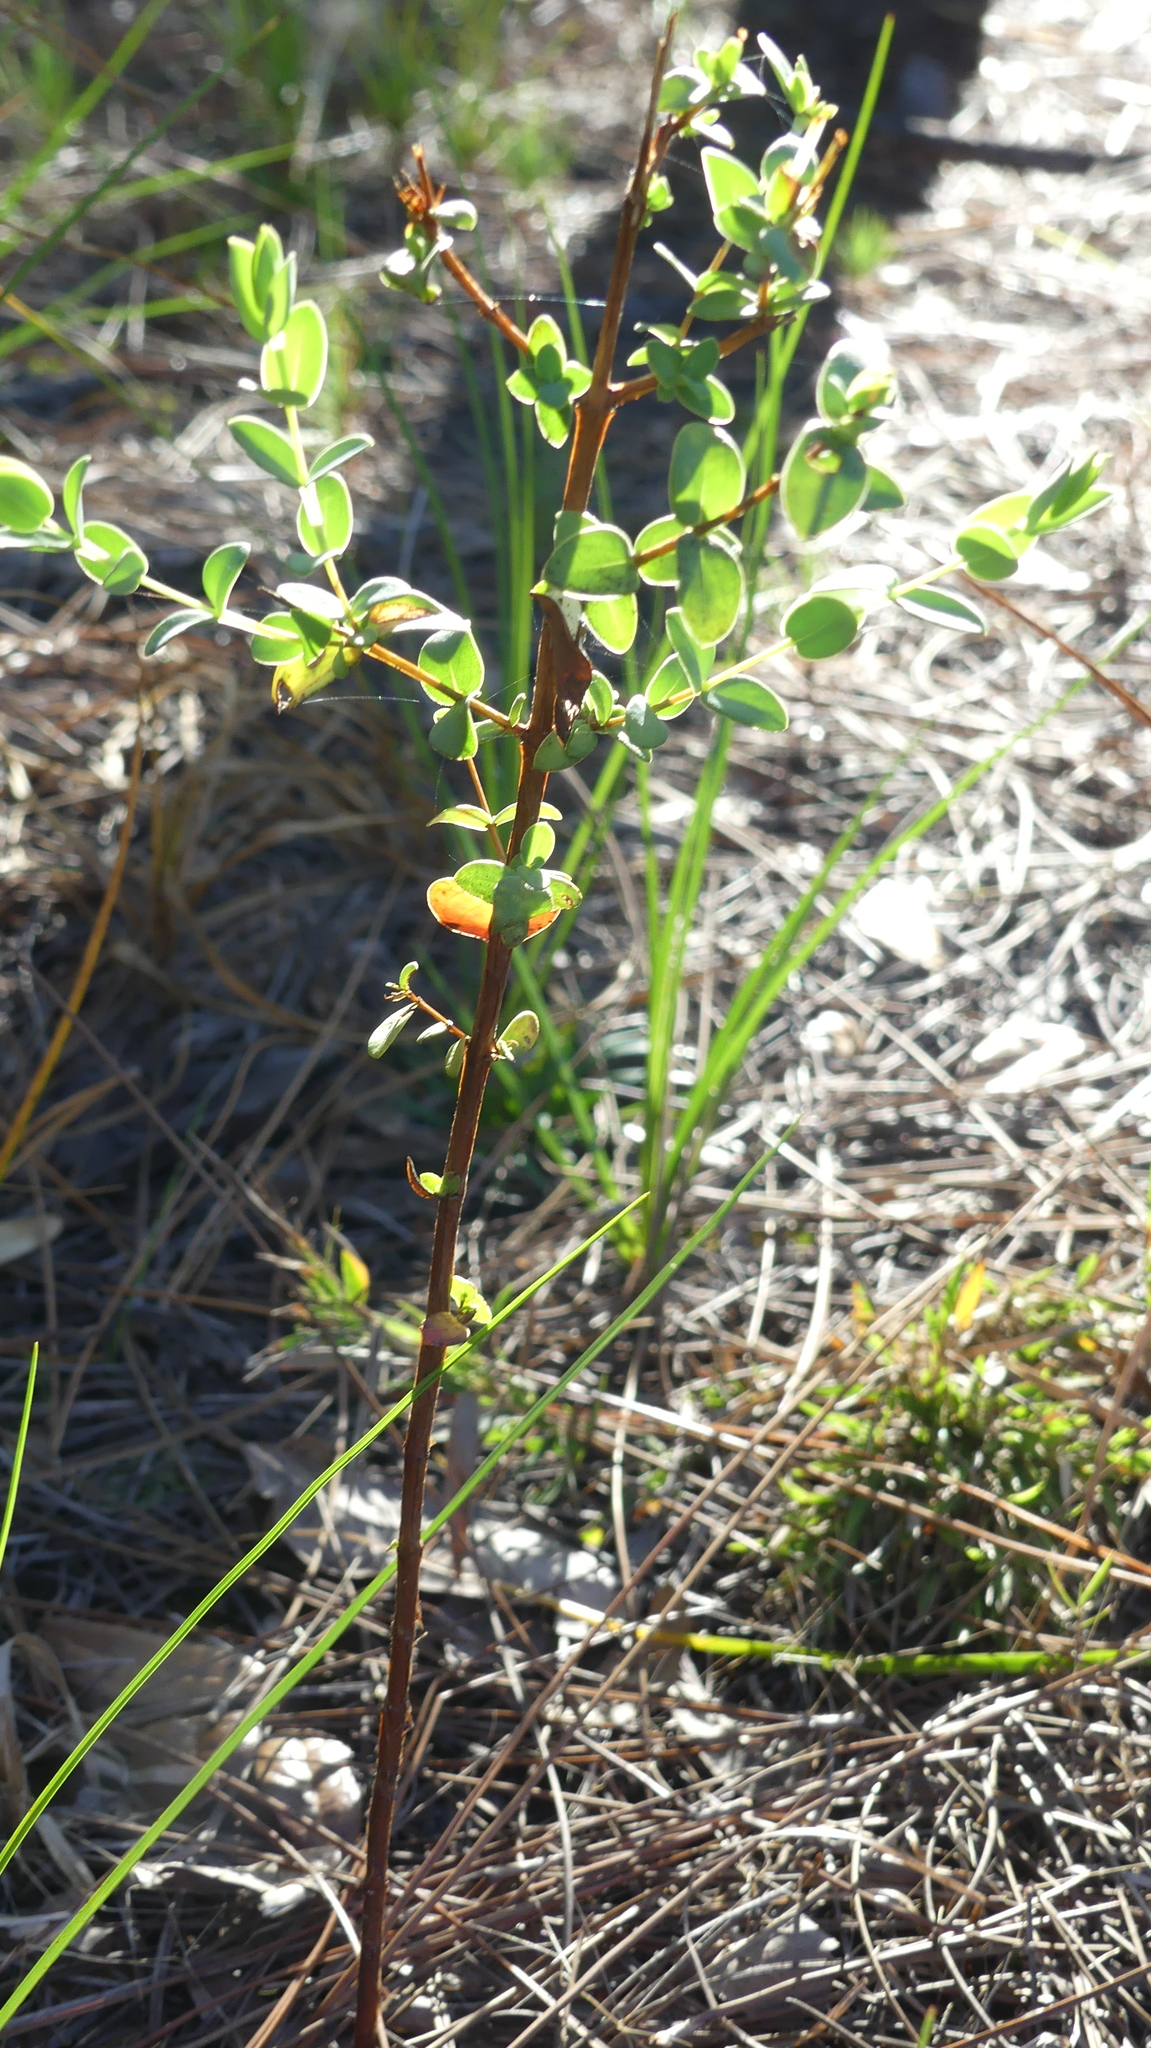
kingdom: Plantae
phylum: Tracheophyta
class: Magnoliopsida
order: Malpighiales
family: Hypericaceae
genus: Hypericum
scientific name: Hypericum tetrapetalum
